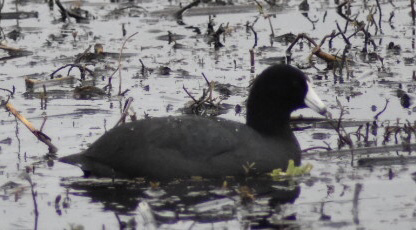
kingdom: Animalia
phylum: Chordata
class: Aves
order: Gruiformes
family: Rallidae
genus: Fulica
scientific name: Fulica americana
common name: American coot
